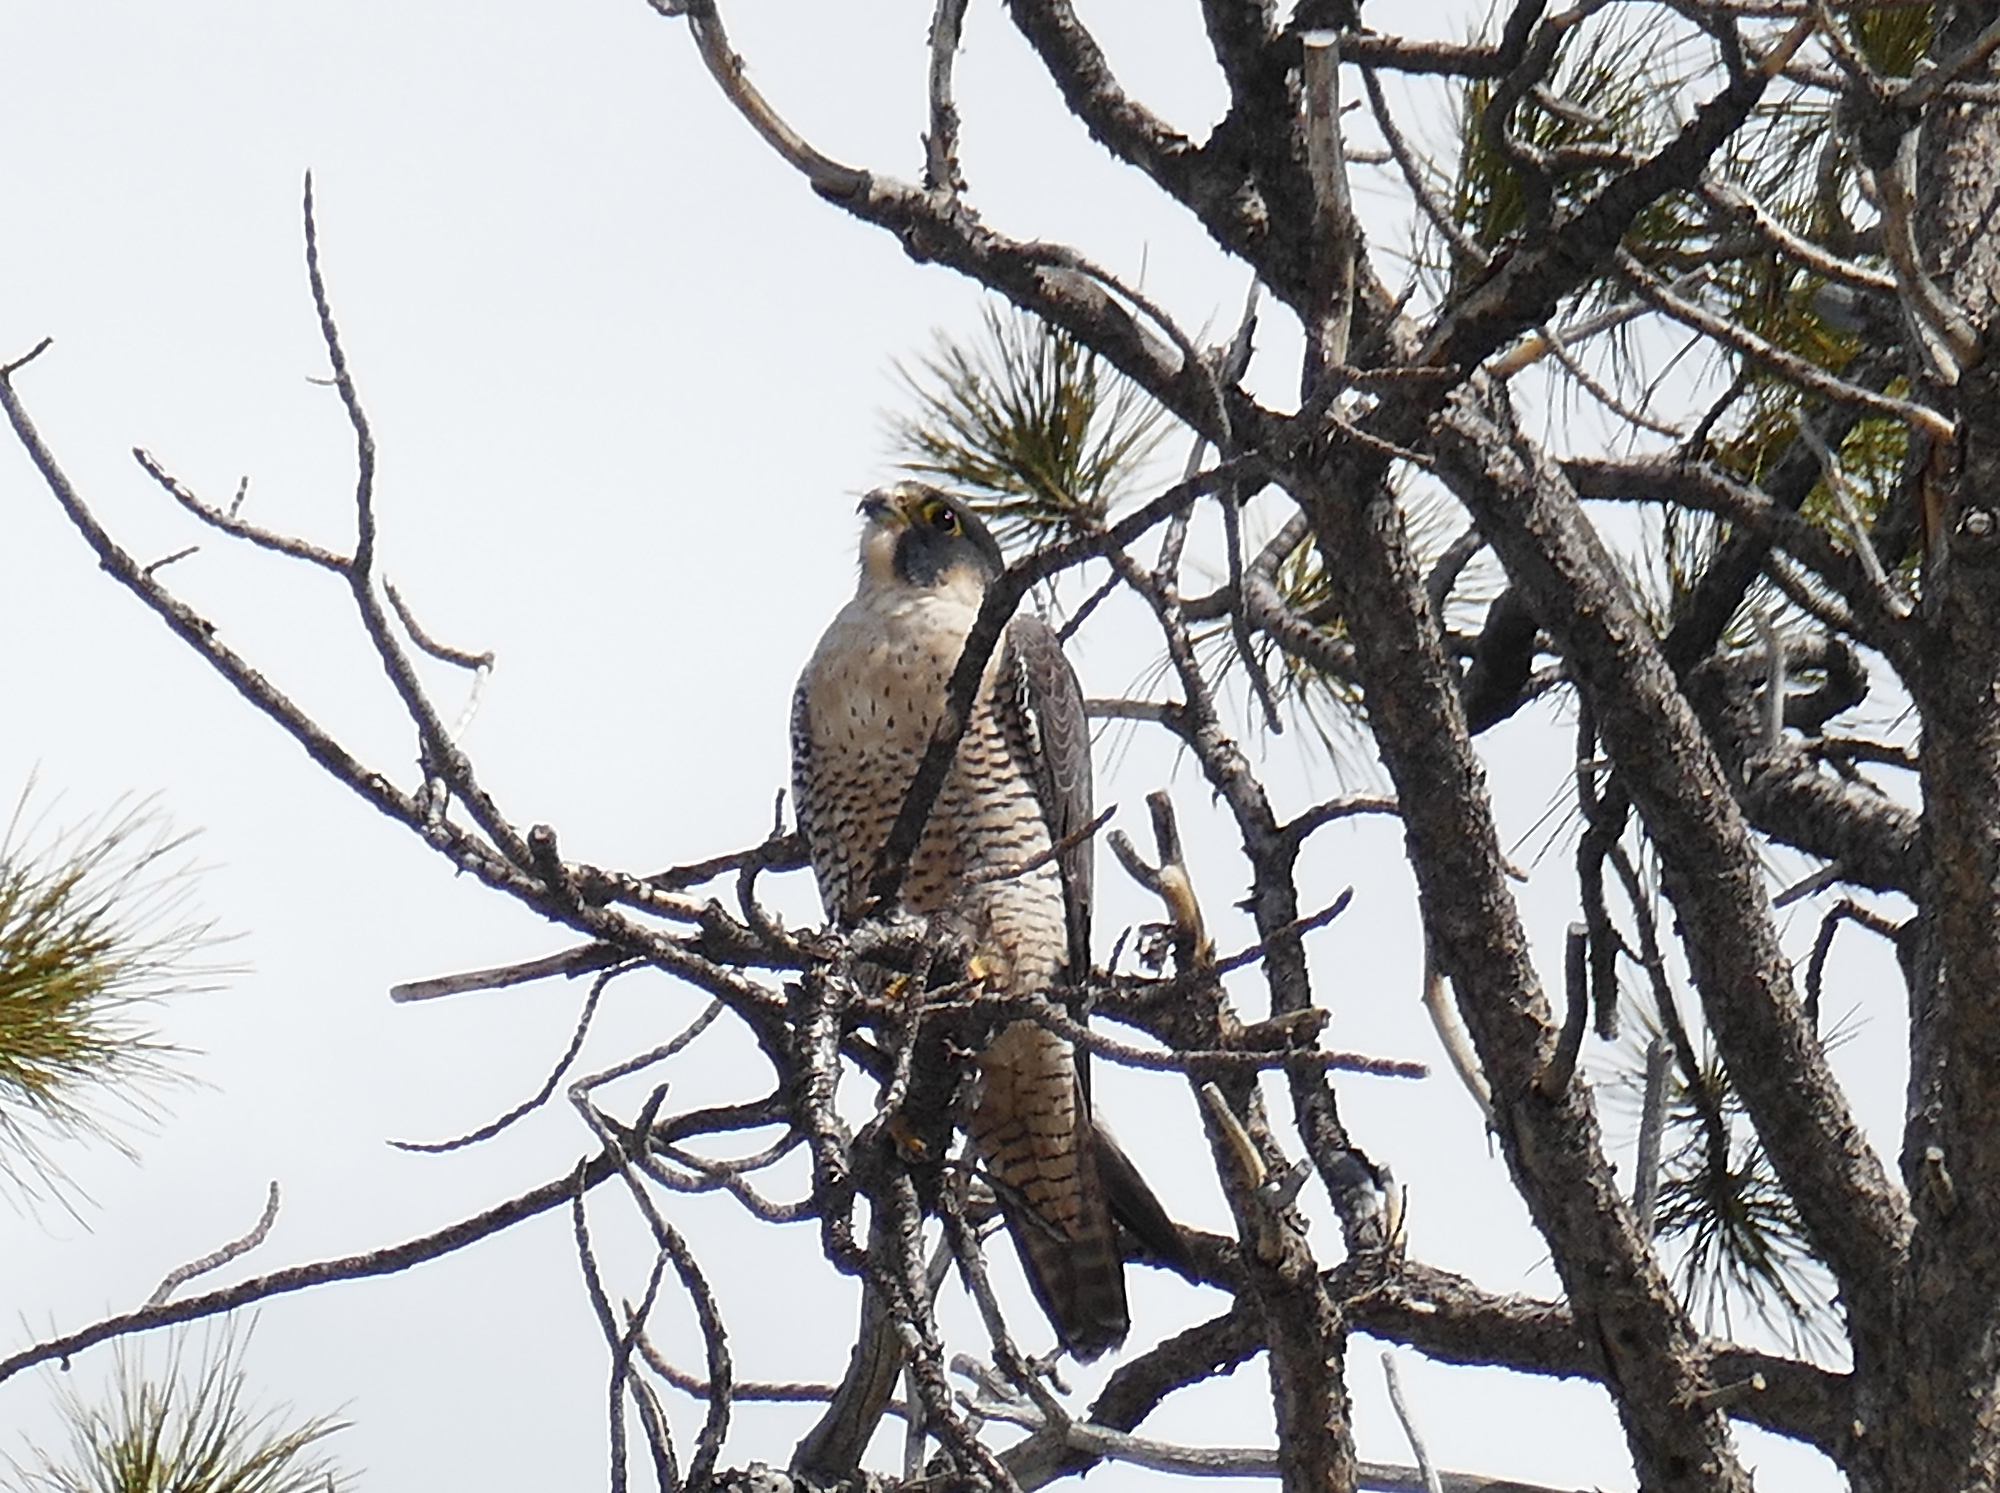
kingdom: Animalia
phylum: Chordata
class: Aves
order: Falconiformes
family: Falconidae
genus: Falco
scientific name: Falco peregrinus
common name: Peregrine falcon
